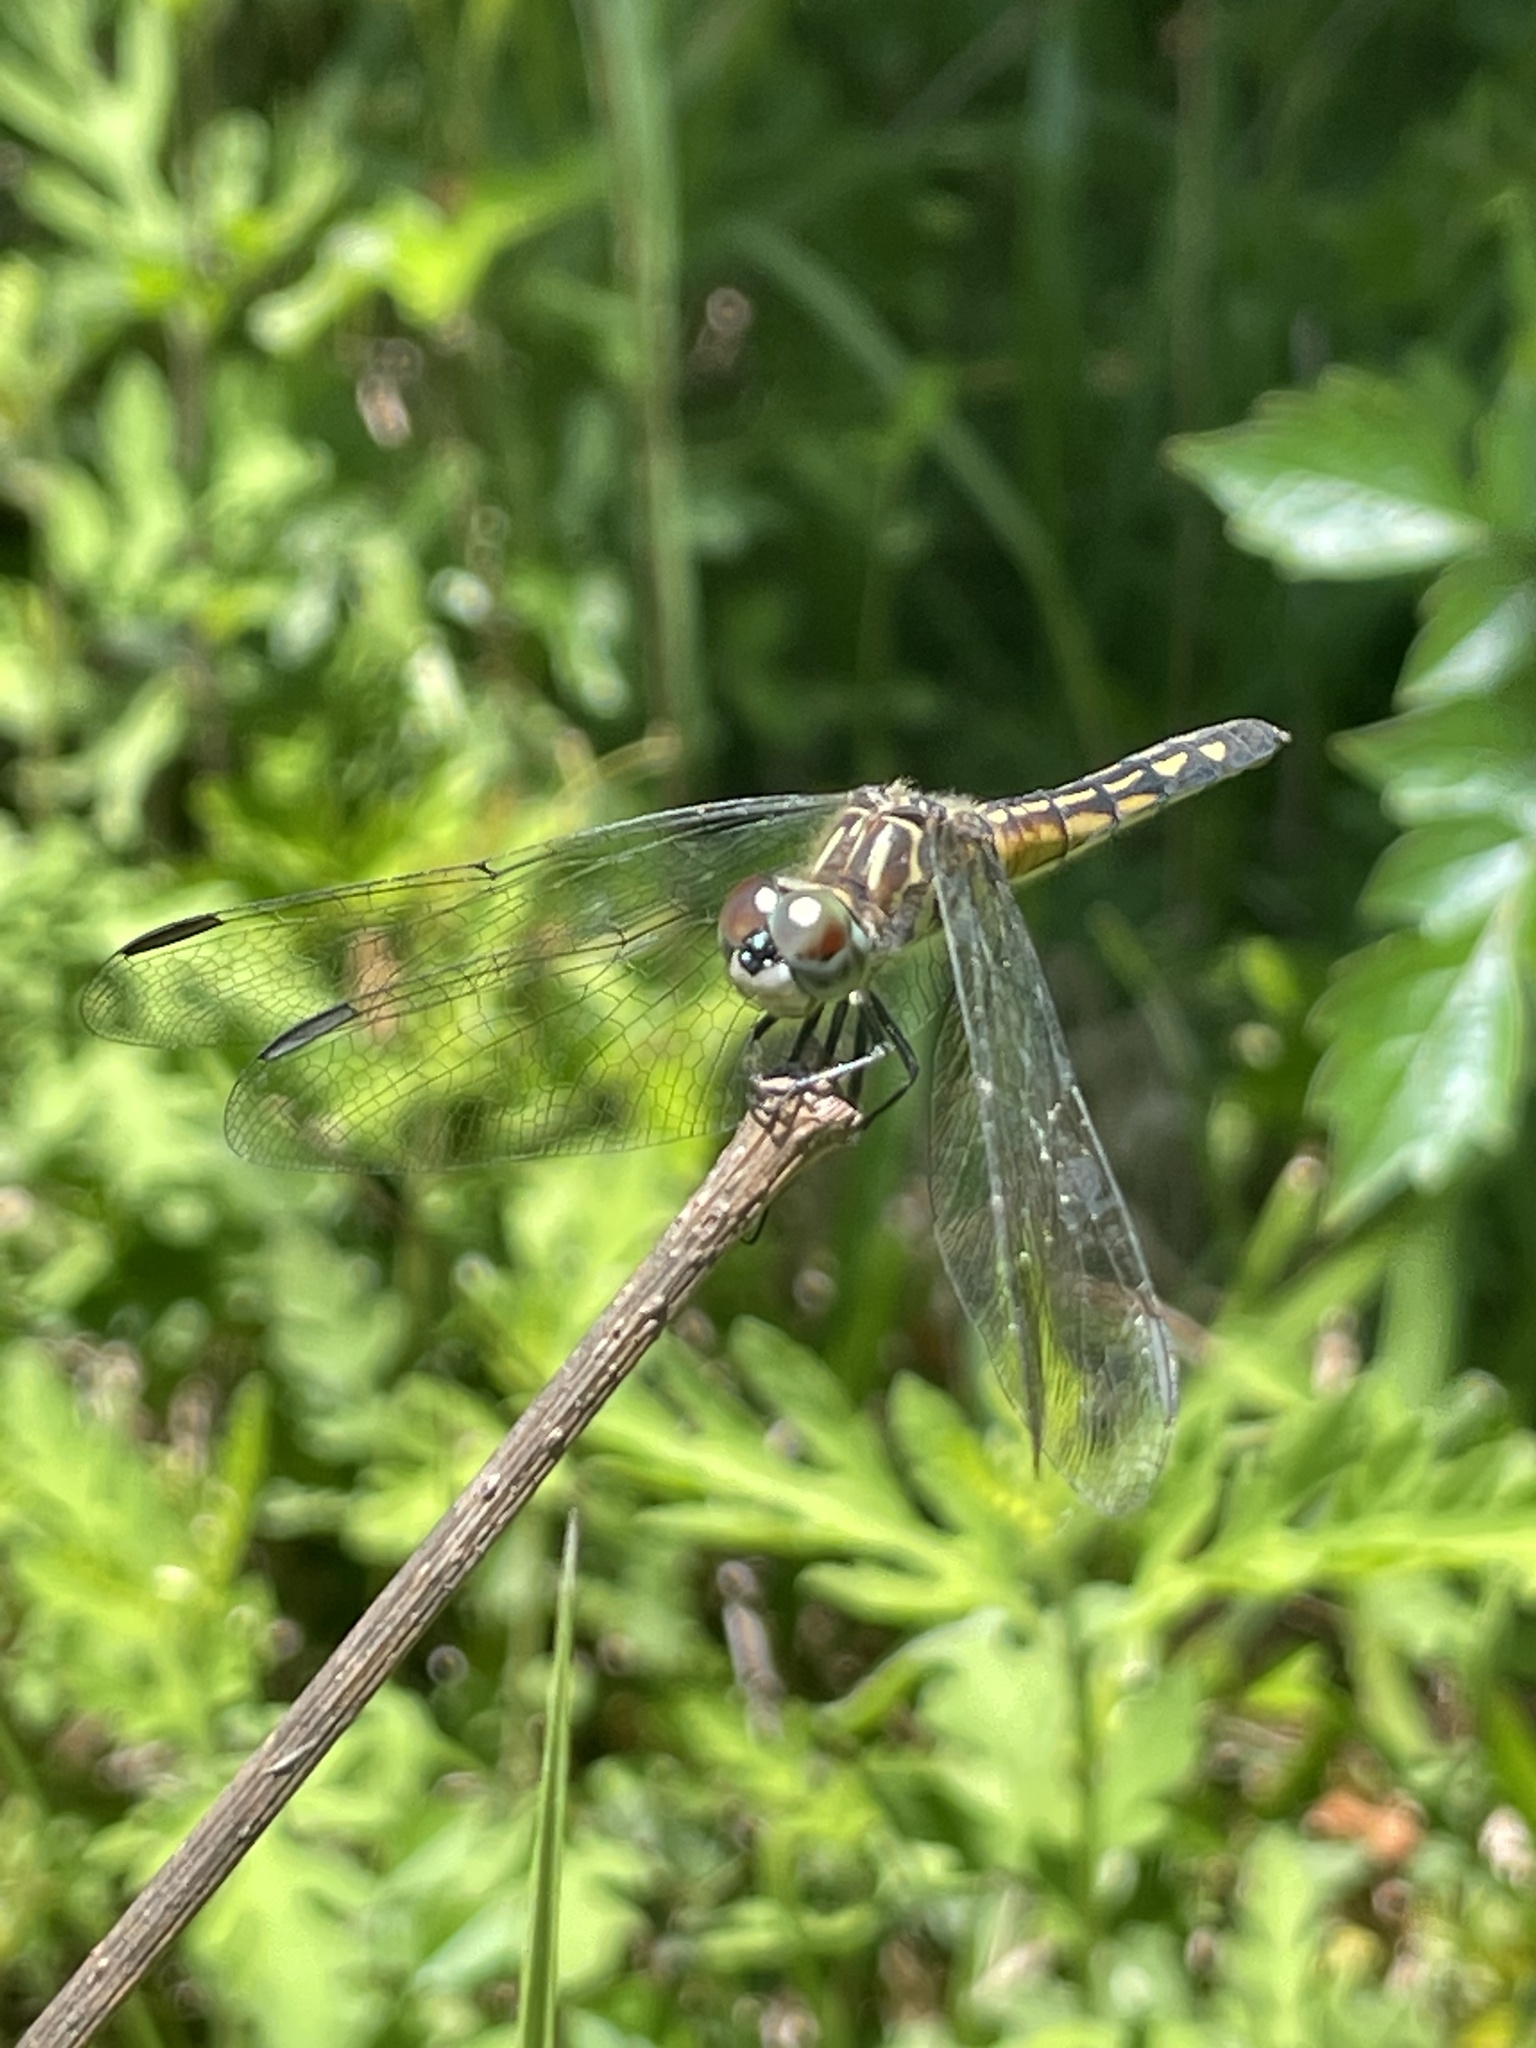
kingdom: Animalia
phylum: Arthropoda
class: Insecta
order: Odonata
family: Libellulidae
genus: Pachydiplax
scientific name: Pachydiplax longipennis
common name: Blue dasher
